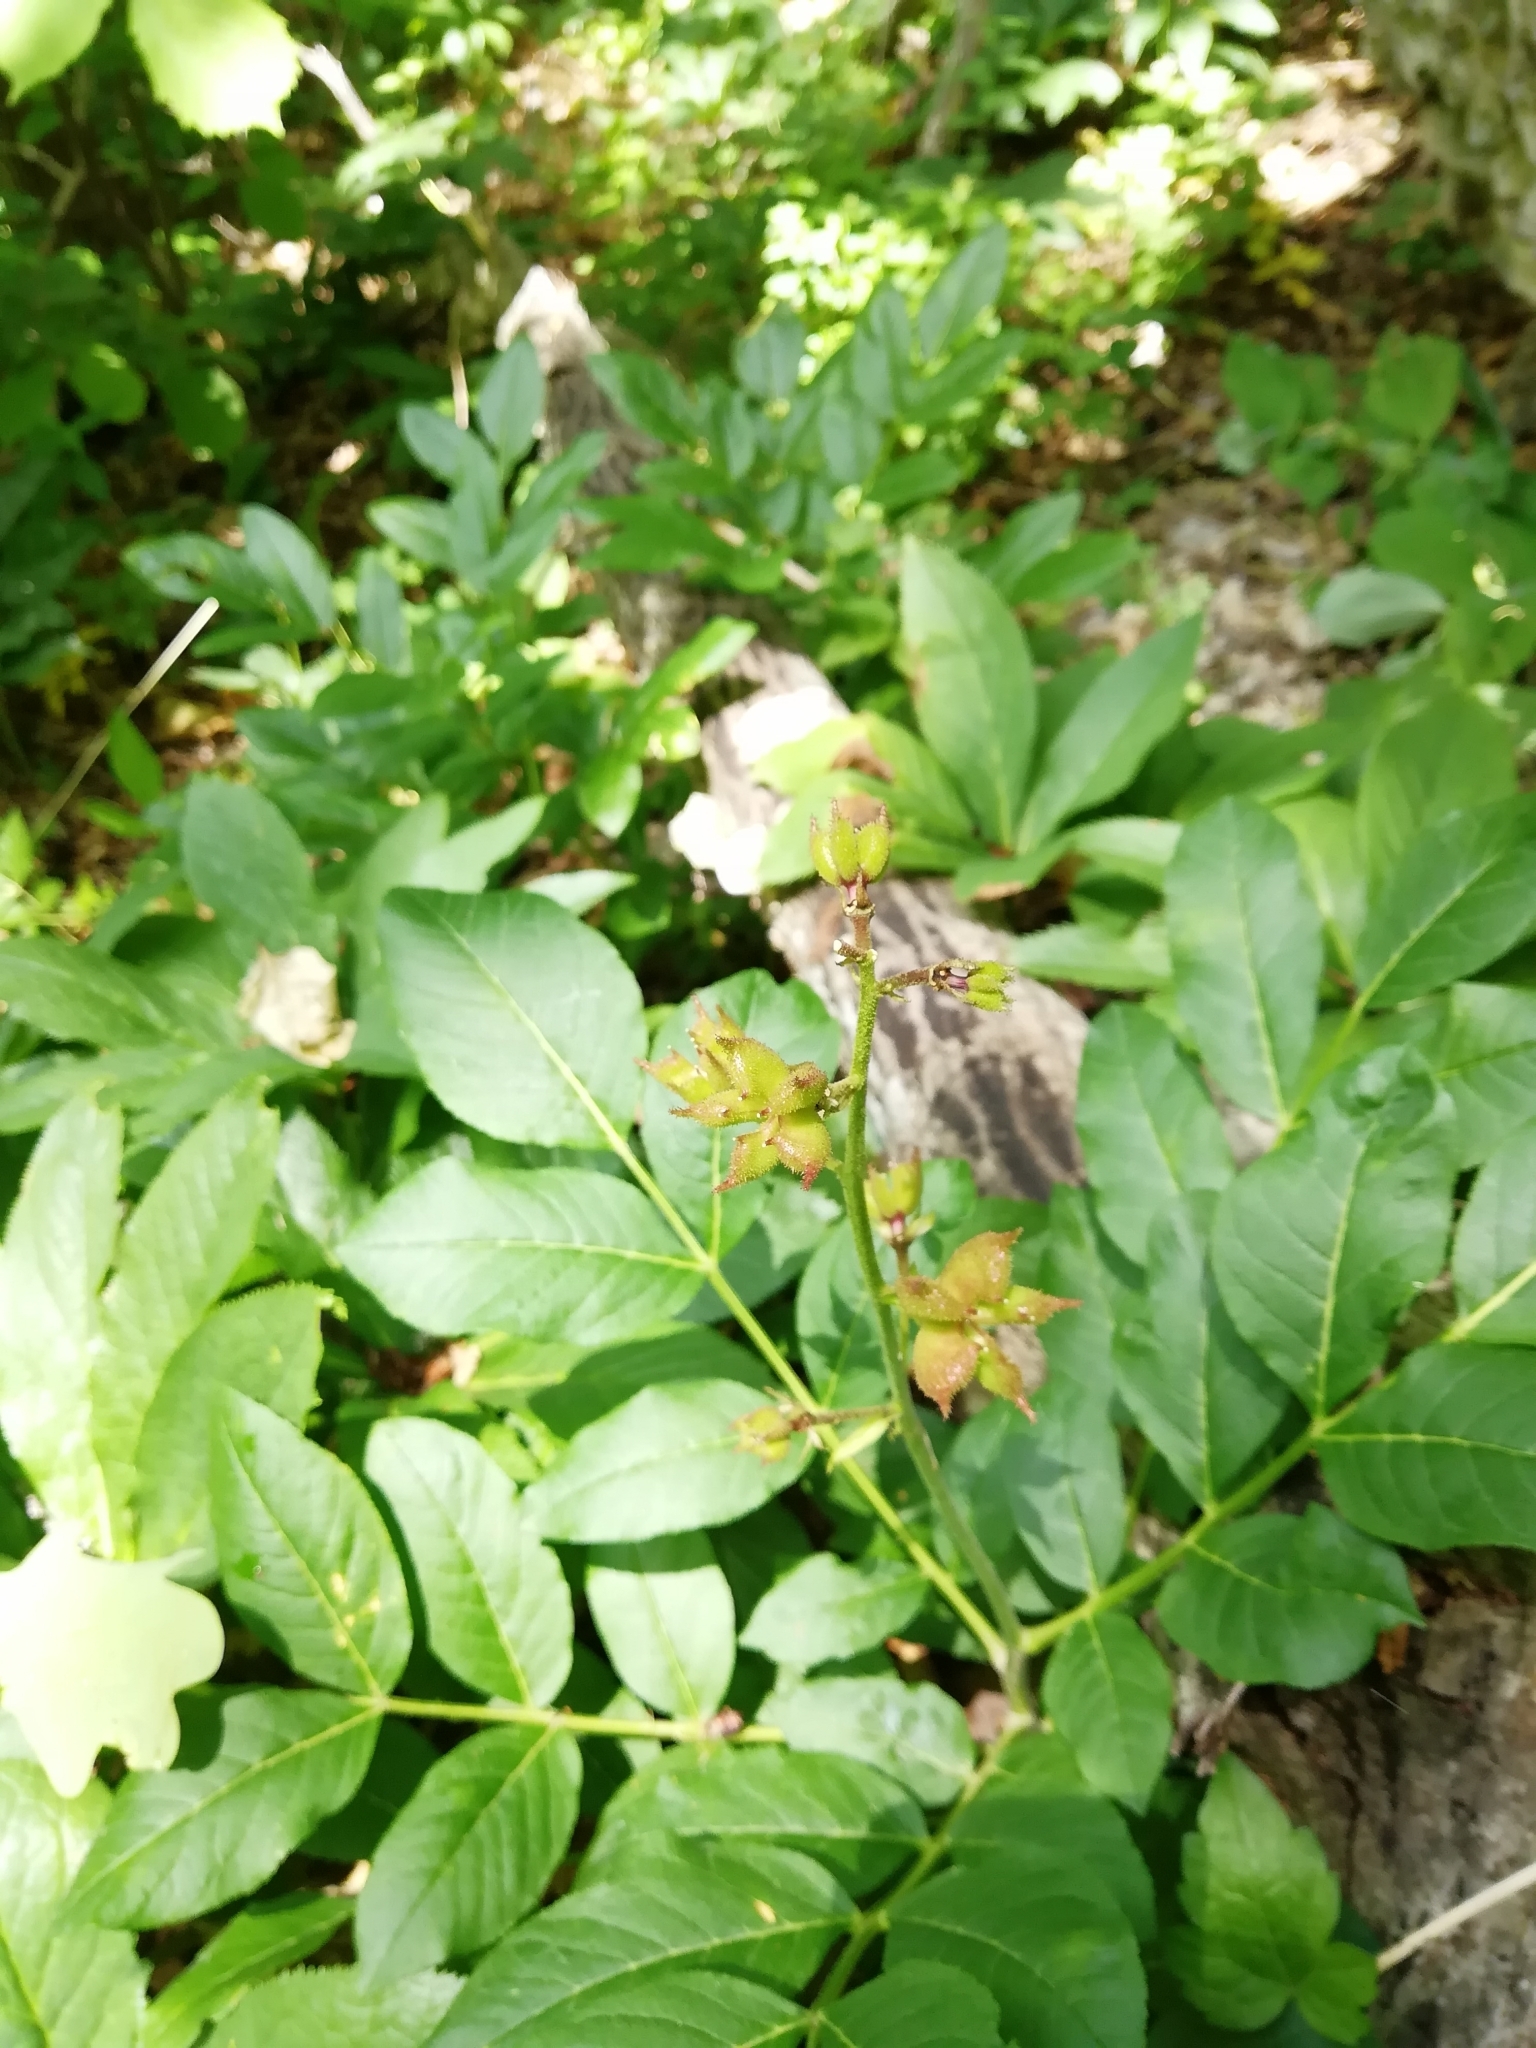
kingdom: Plantae
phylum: Tracheophyta
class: Magnoliopsida
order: Sapindales
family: Rutaceae
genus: Dictamnus
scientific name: Dictamnus albus
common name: Gasplant
